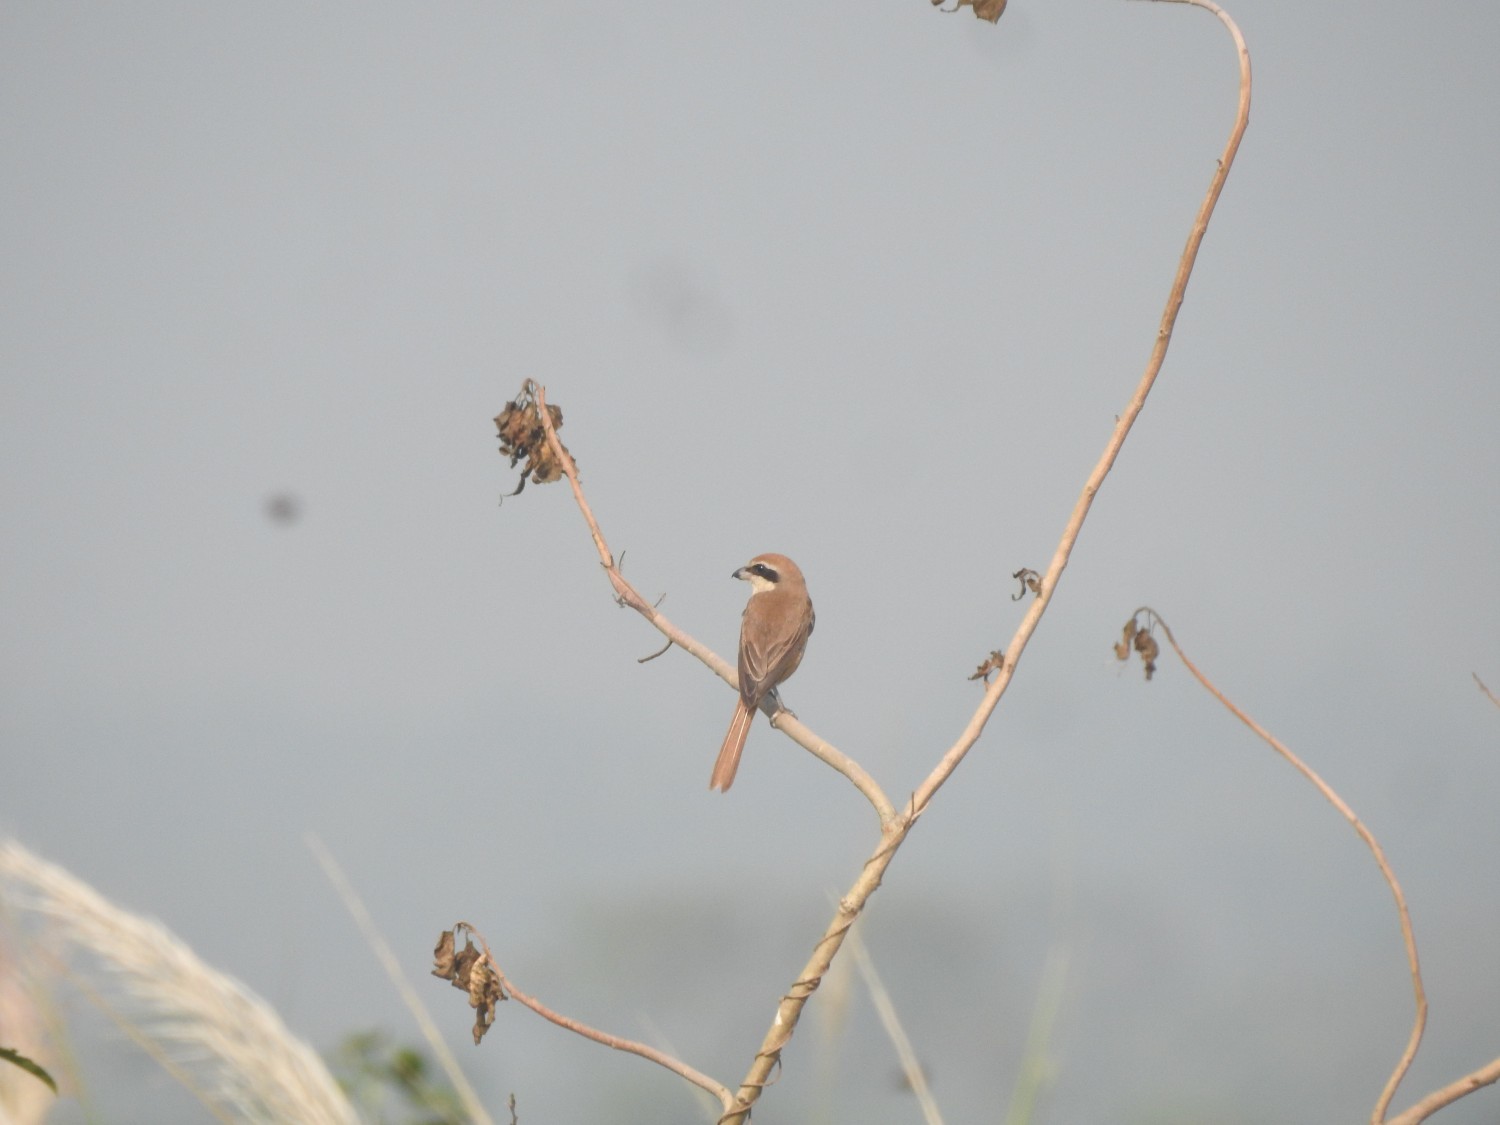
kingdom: Animalia
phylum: Chordata
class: Aves
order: Passeriformes
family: Laniidae
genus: Lanius
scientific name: Lanius cristatus
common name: Brown shrike
